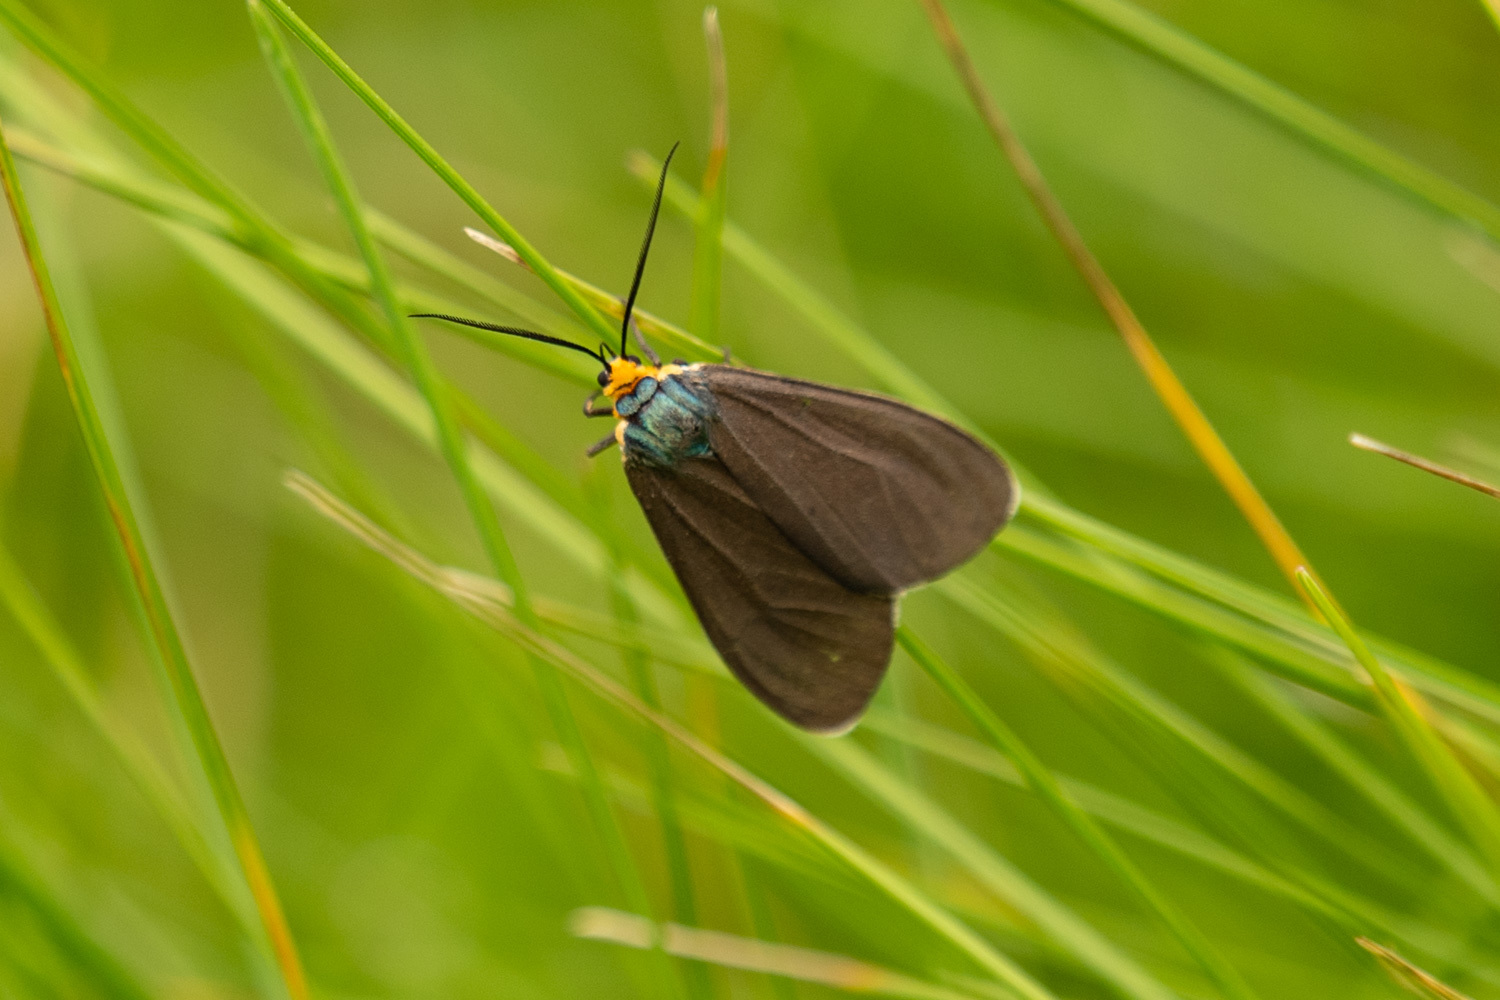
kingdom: Animalia
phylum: Arthropoda
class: Insecta
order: Lepidoptera
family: Erebidae
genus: Ctenucha
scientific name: Ctenucha virginica
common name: Virginia ctenucha moth
